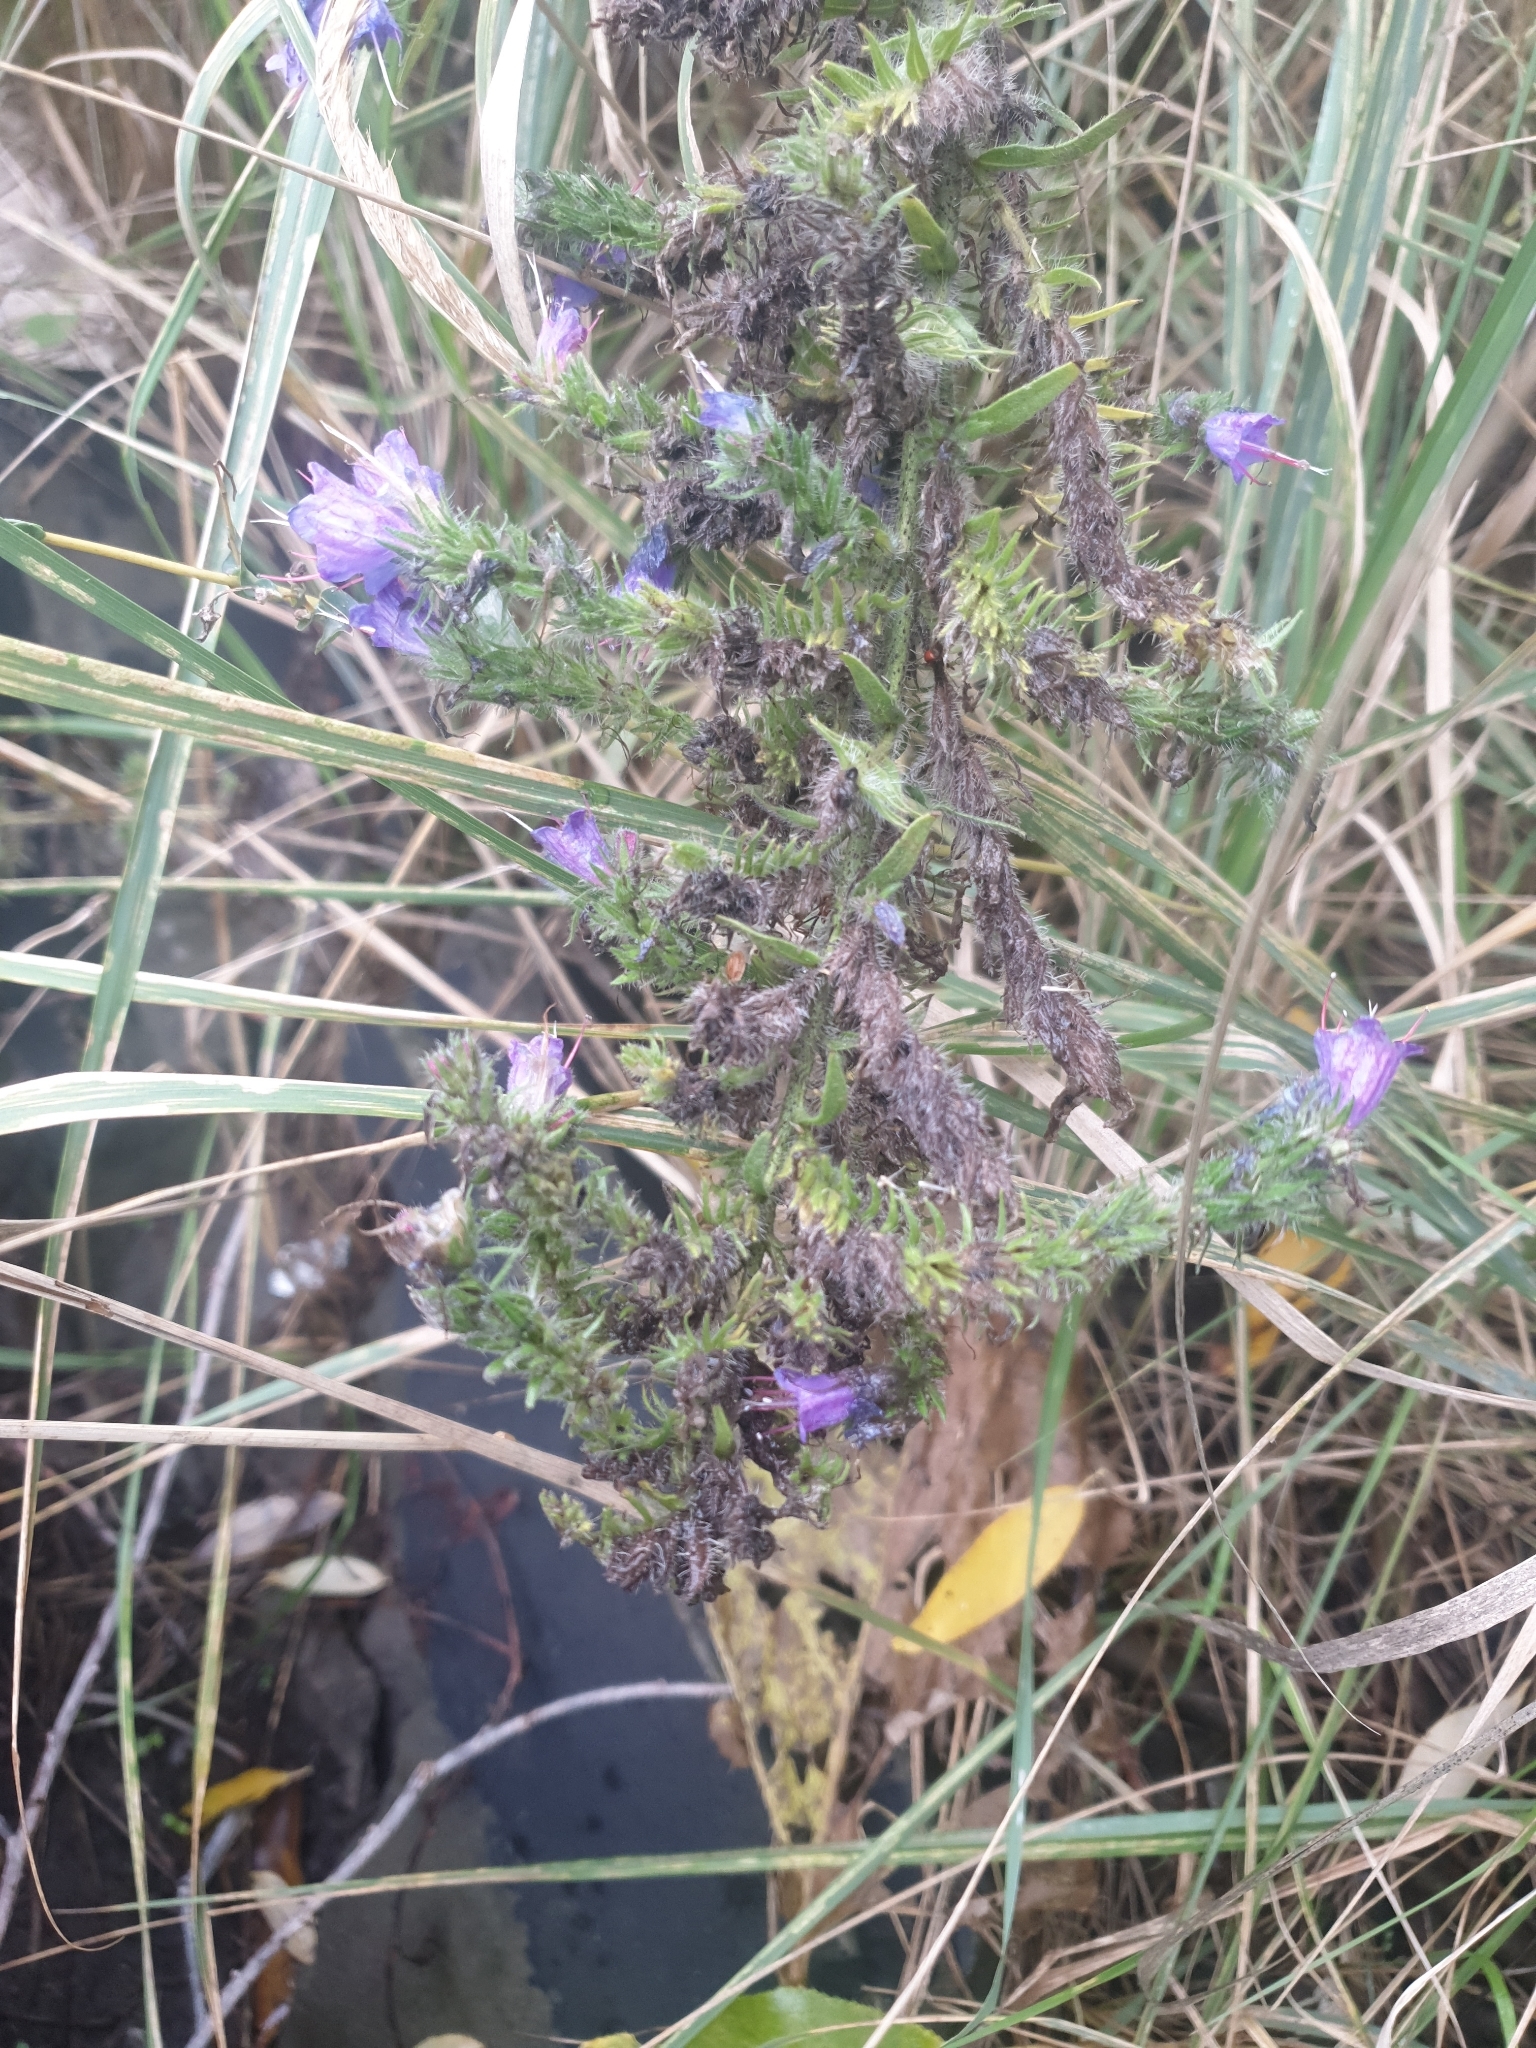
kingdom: Plantae
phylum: Tracheophyta
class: Magnoliopsida
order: Boraginales
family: Boraginaceae
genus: Echium
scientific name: Echium vulgare
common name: Common viper's bugloss
